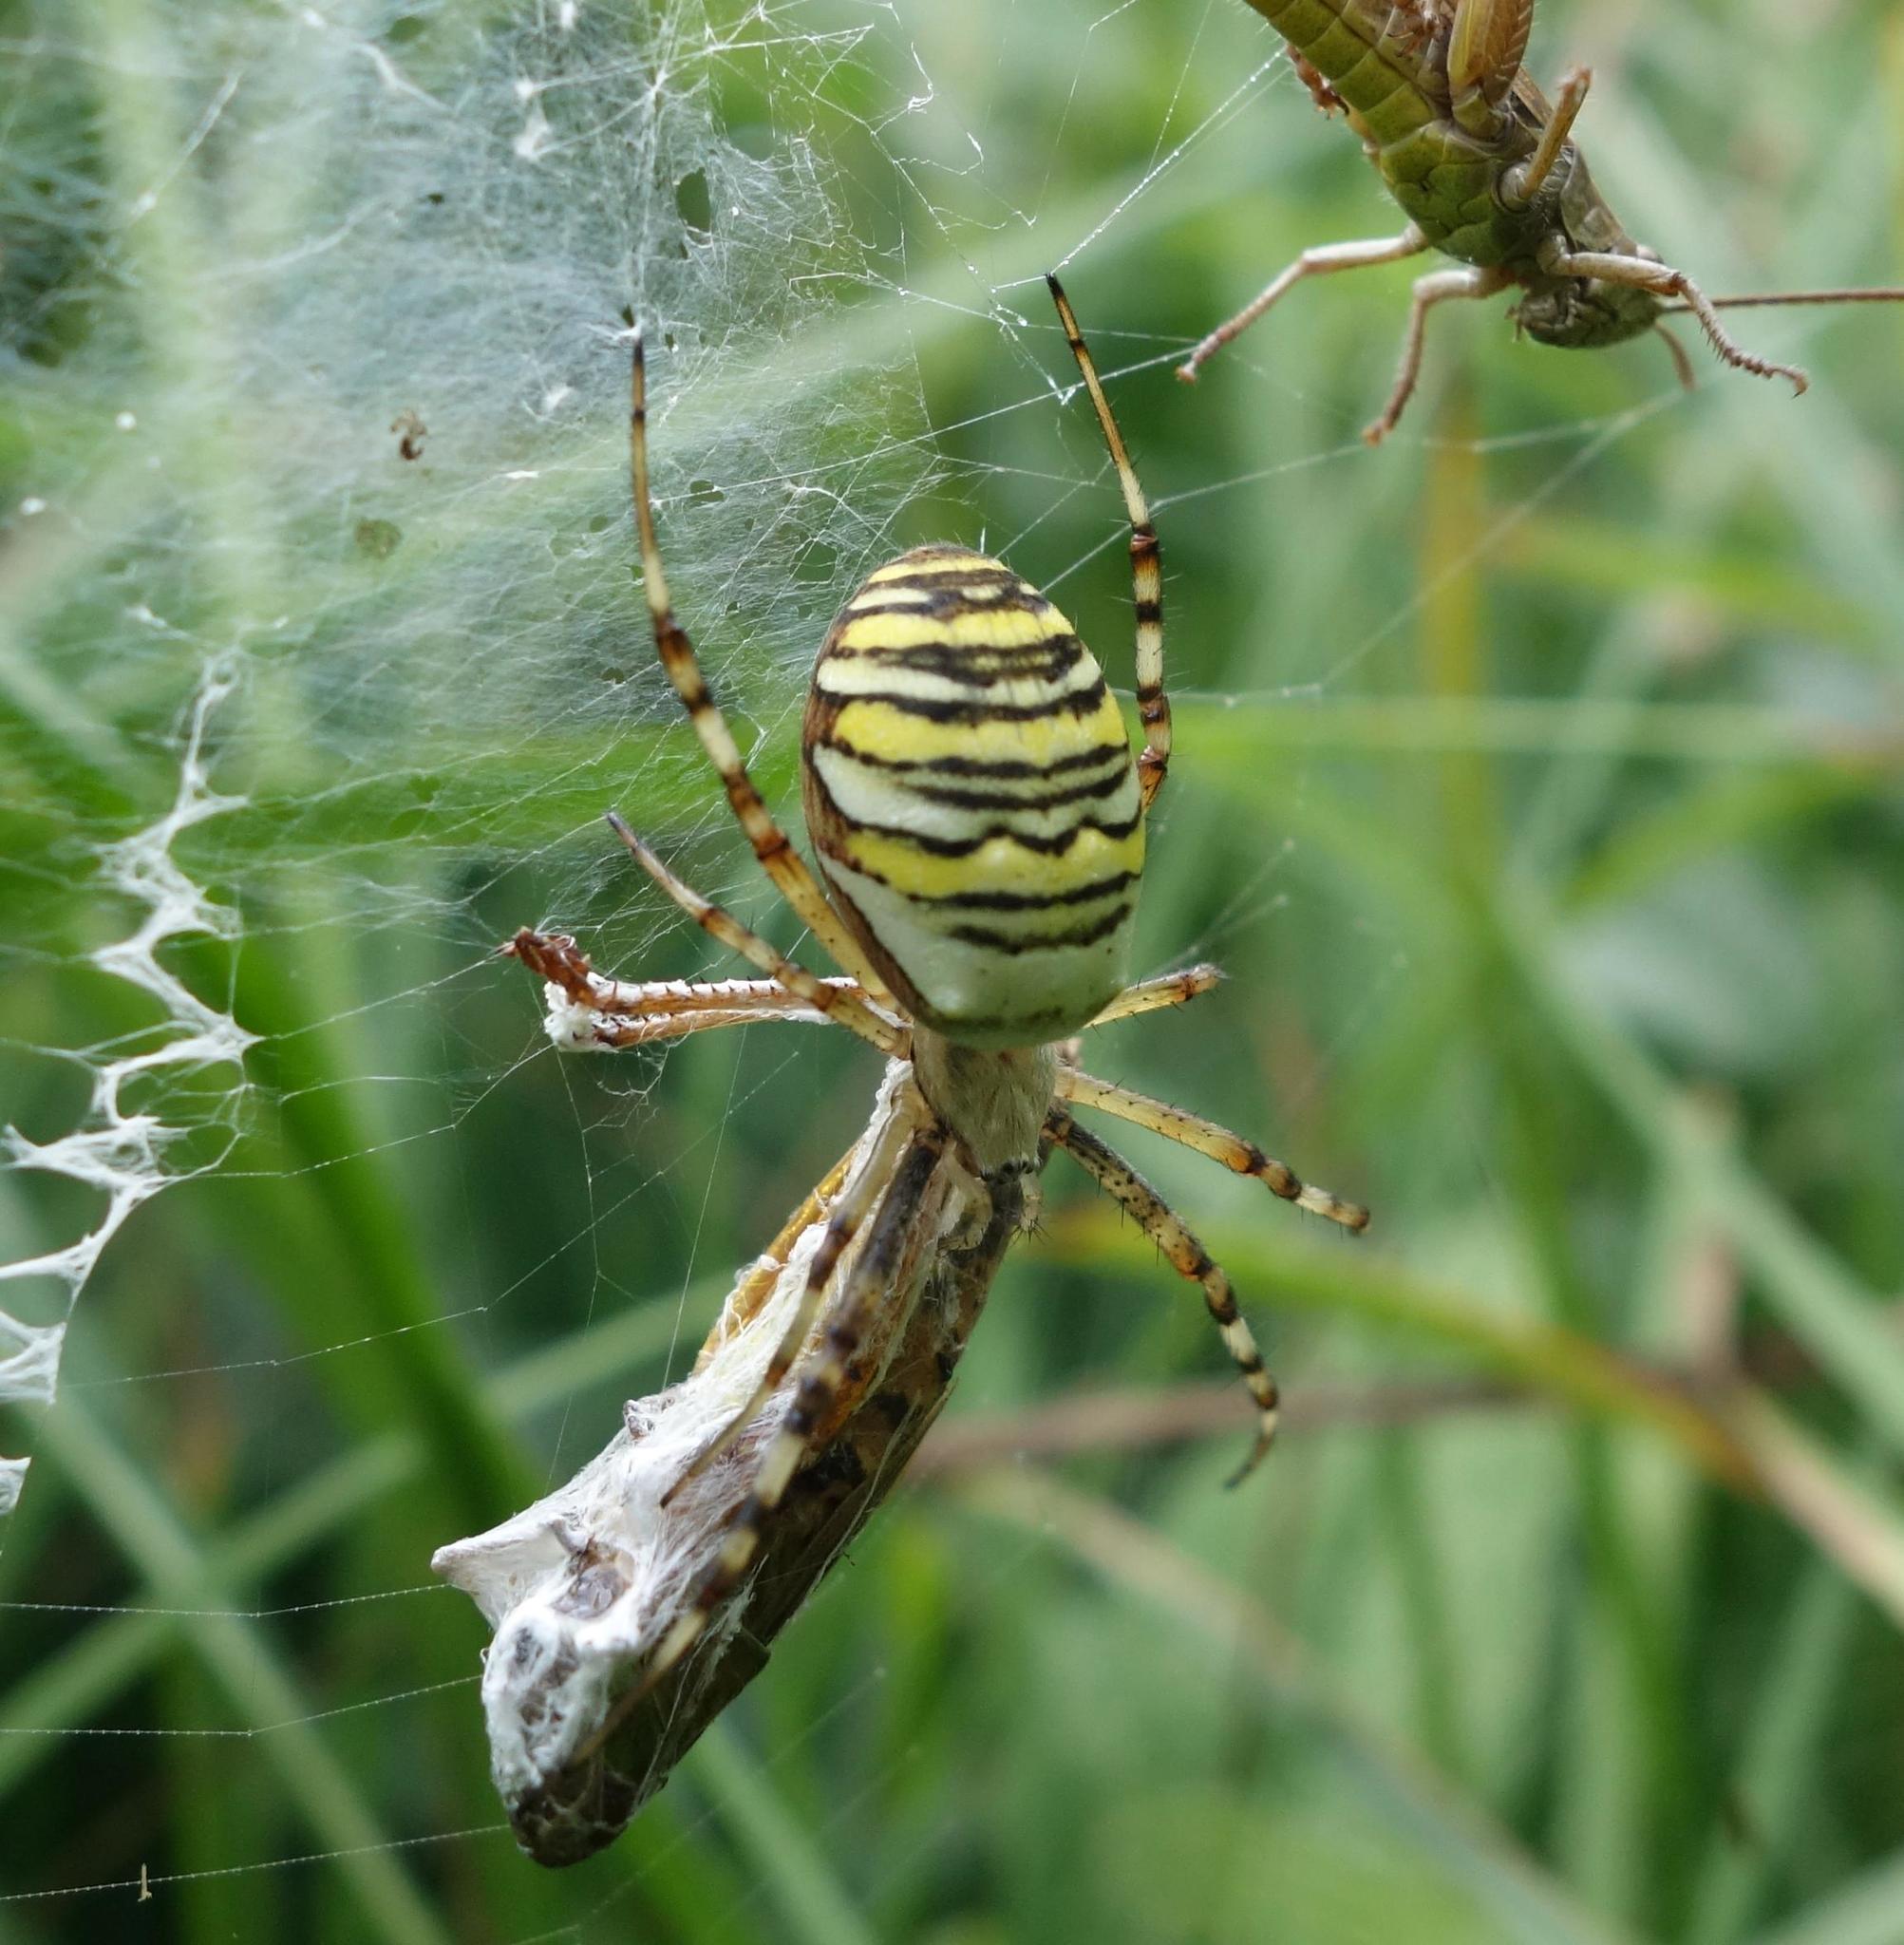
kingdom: Animalia
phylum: Arthropoda
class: Arachnida
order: Araneae
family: Araneidae
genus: Argiope
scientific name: Argiope bruennichi
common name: Wasp spider
